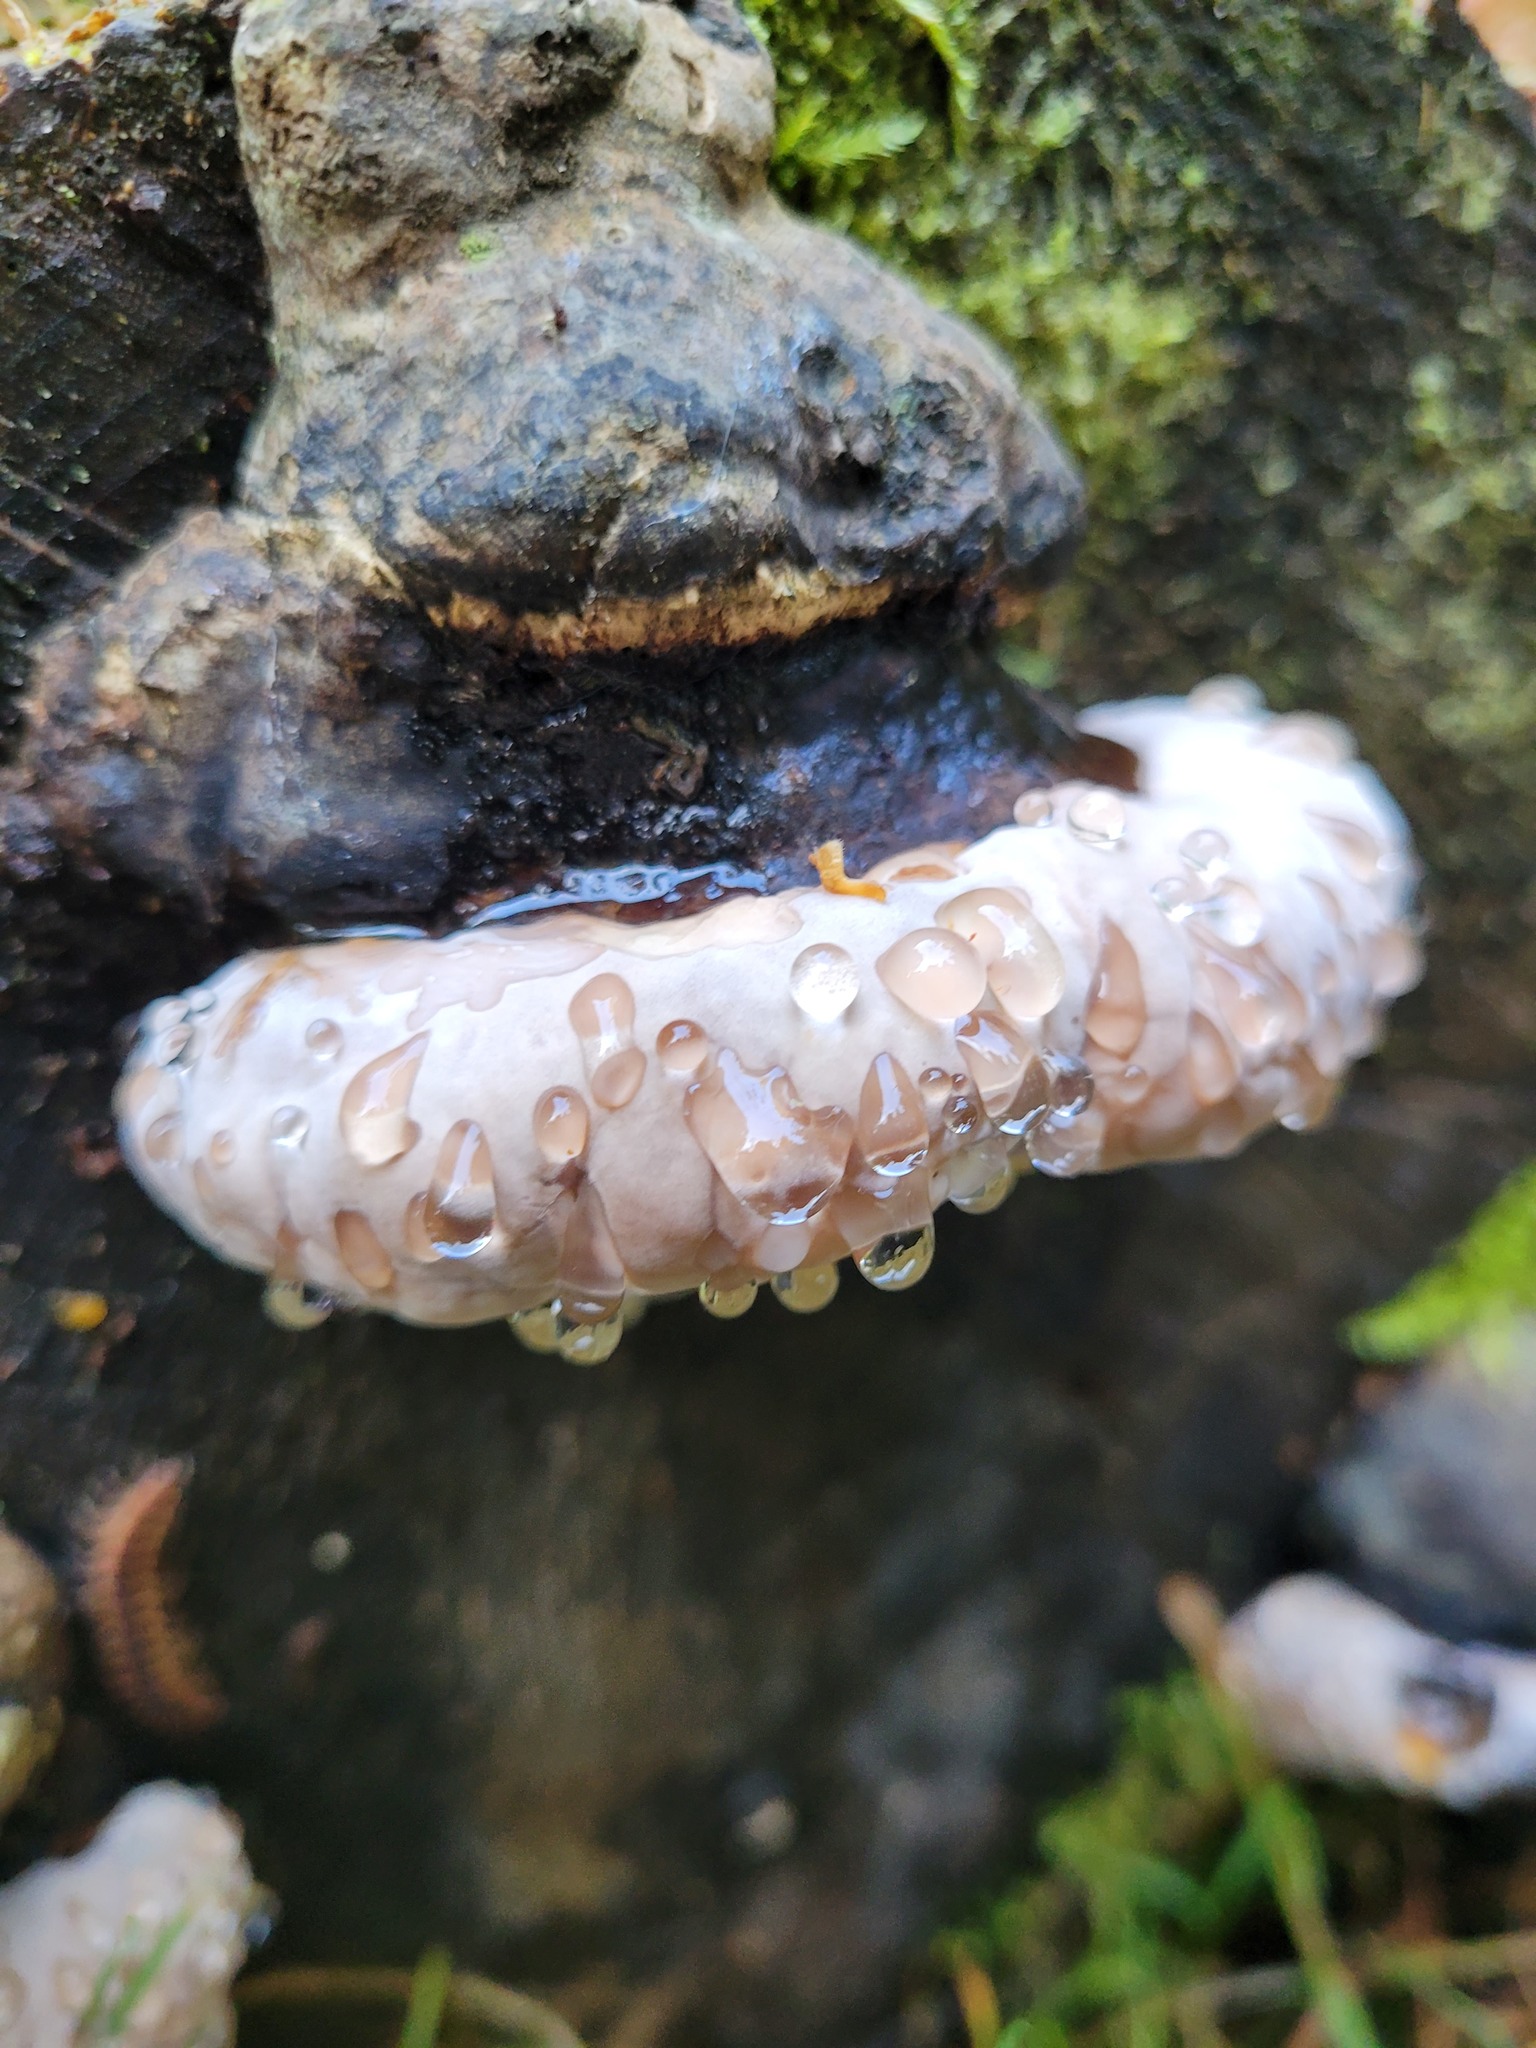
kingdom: Fungi
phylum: Basidiomycota
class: Agaricomycetes
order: Polyporales
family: Ischnodermataceae
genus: Ischnoderma
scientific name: Ischnoderma resinosum
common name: Resinous polypore
